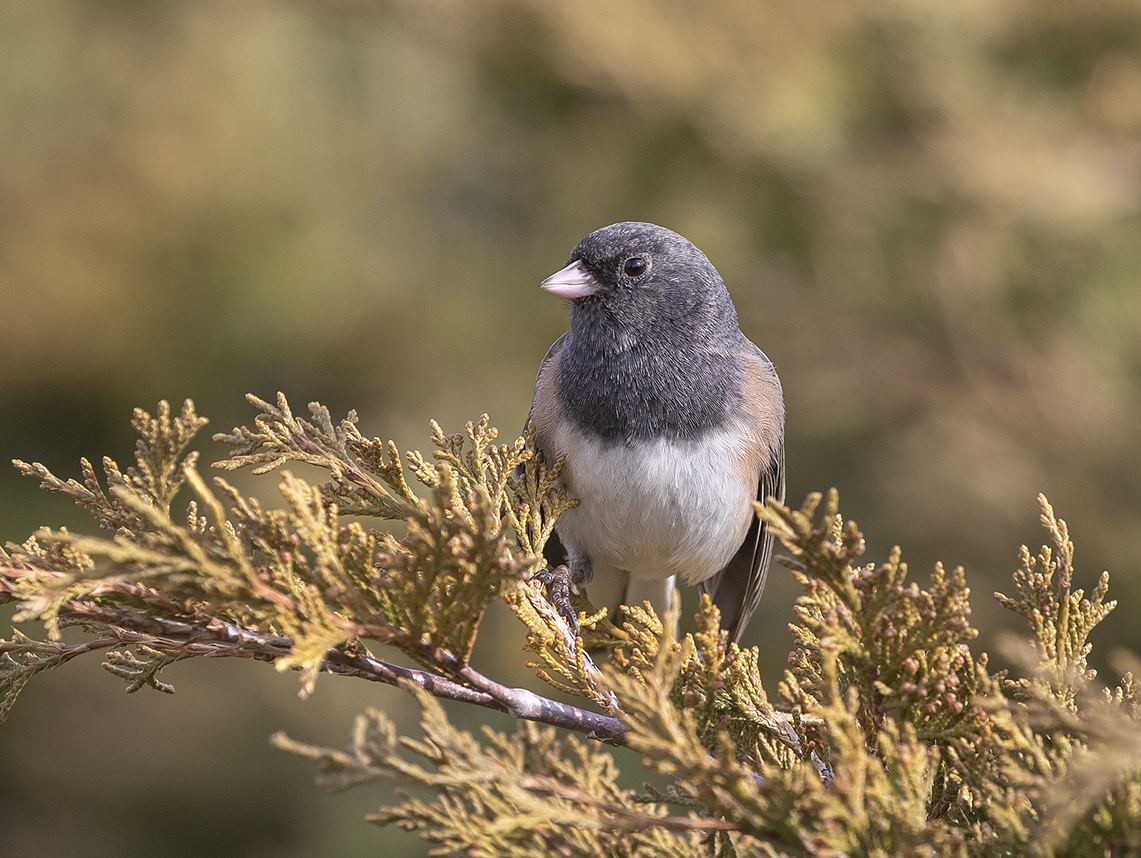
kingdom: Animalia
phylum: Chordata
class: Aves
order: Passeriformes
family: Passerellidae
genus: Junco
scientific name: Junco hyemalis
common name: Dark-eyed junco
